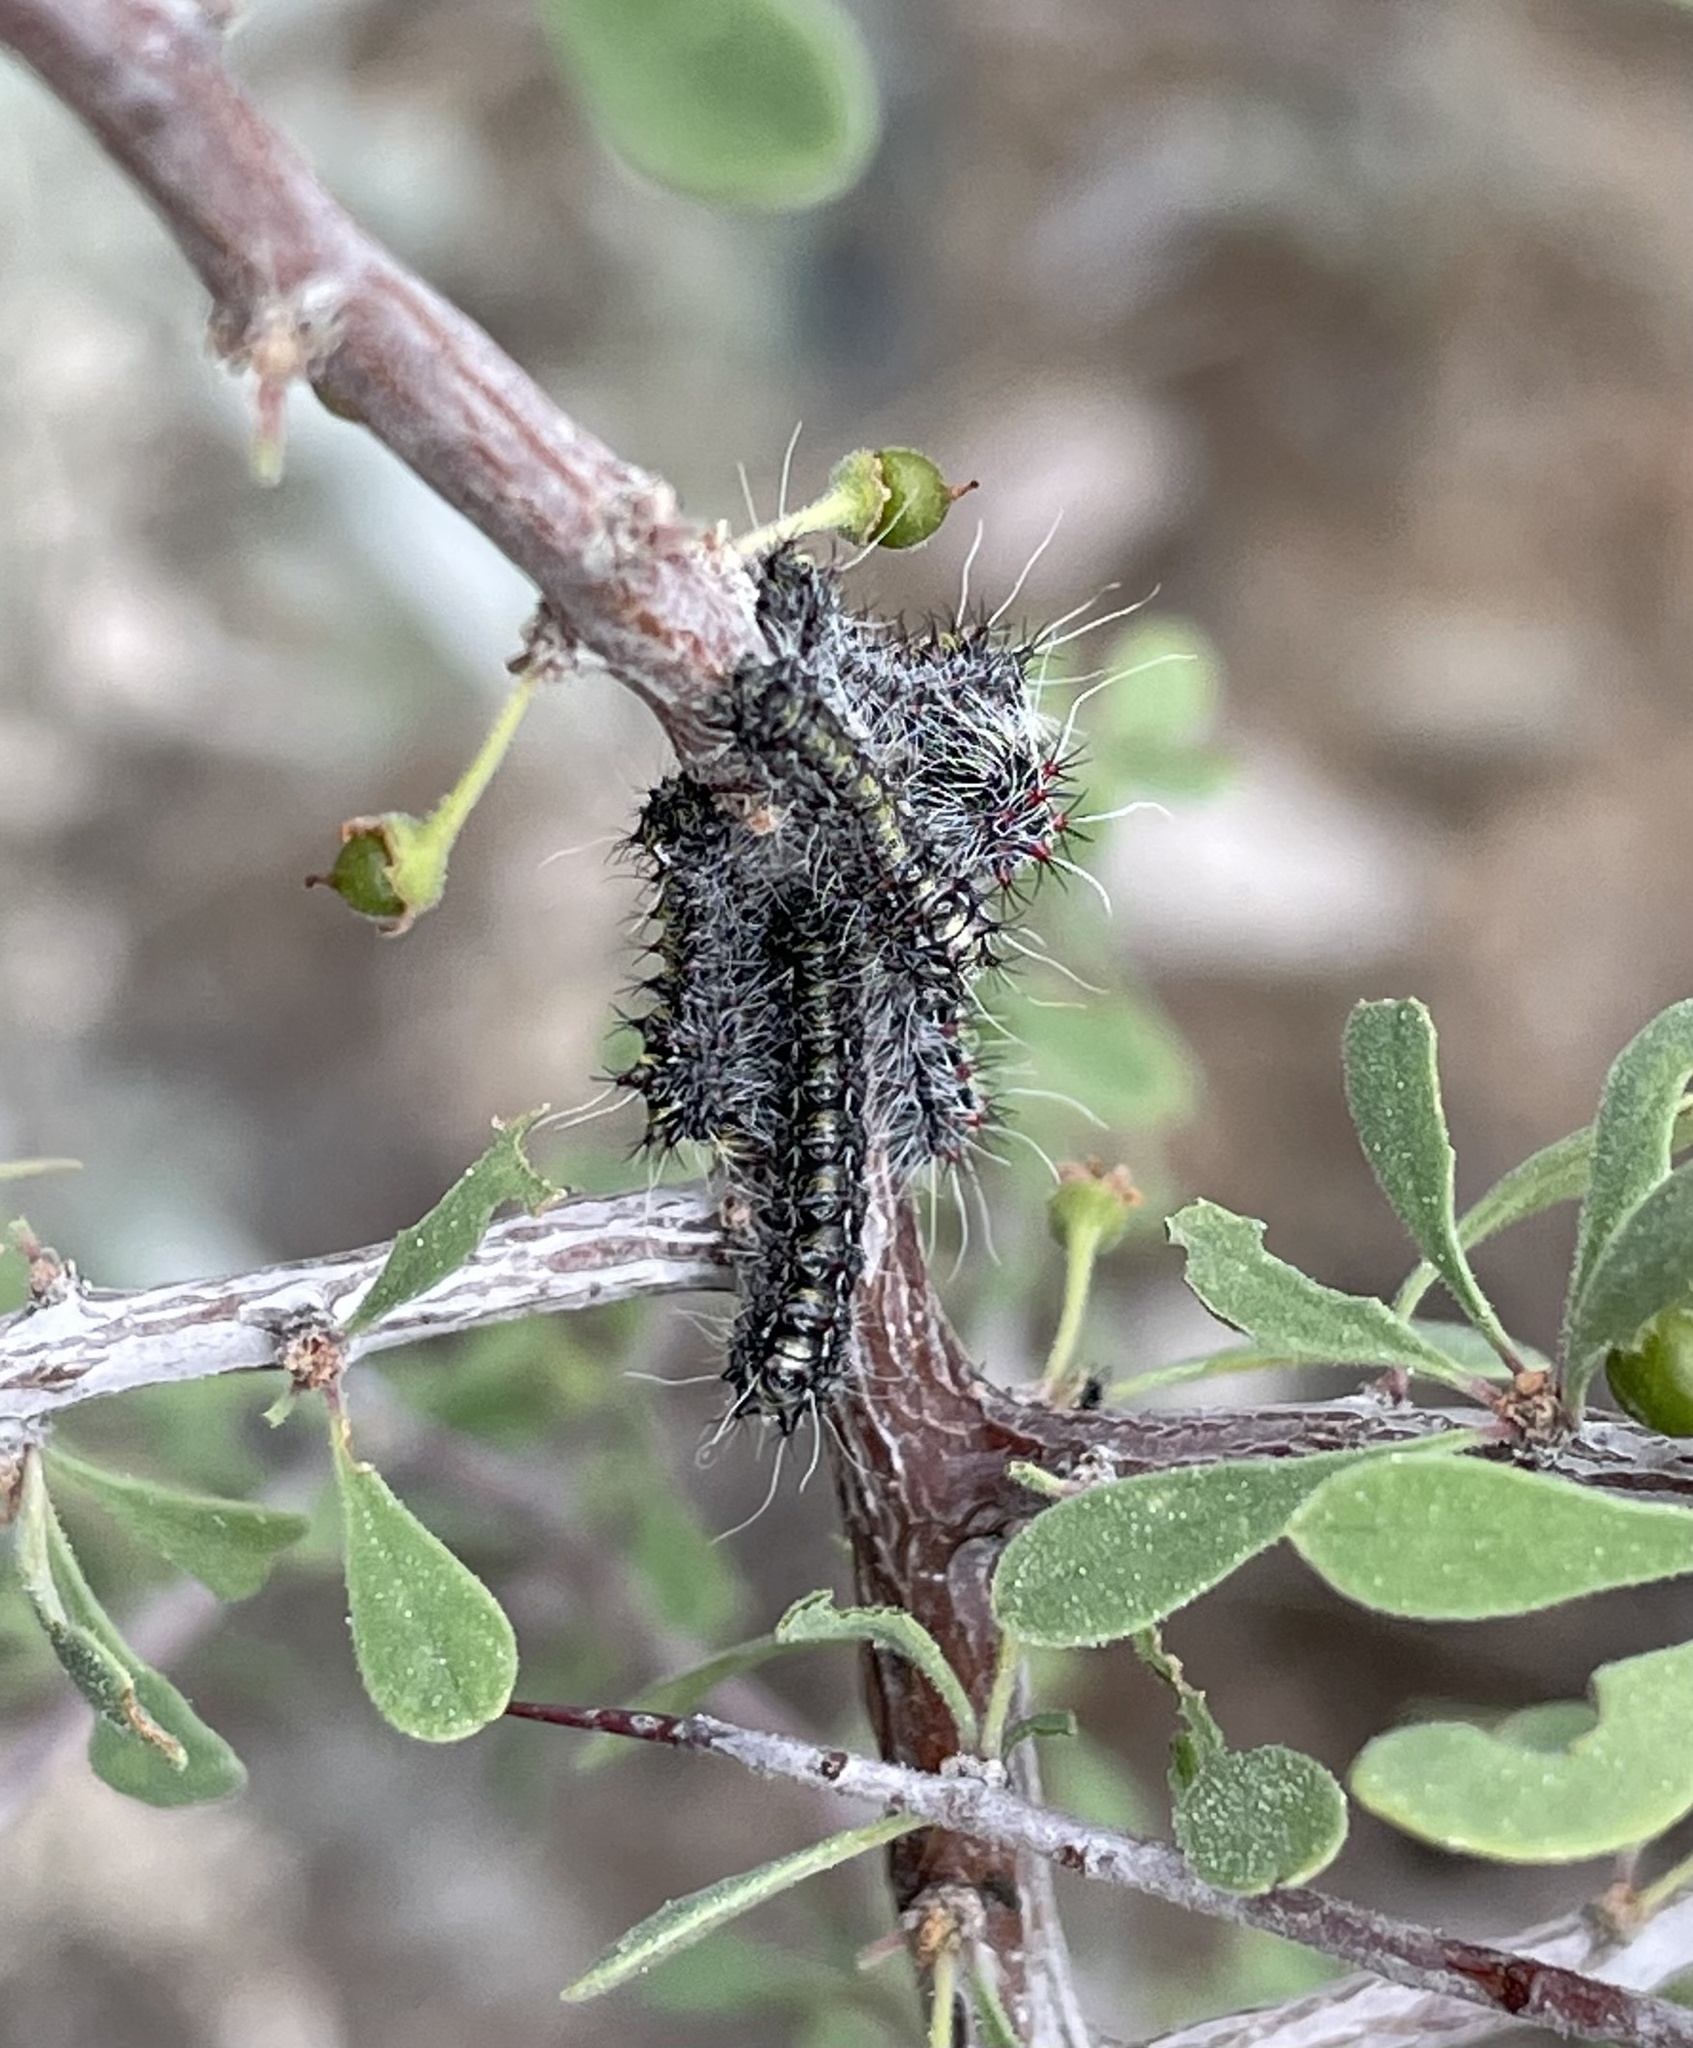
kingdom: Animalia
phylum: Arthropoda
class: Insecta
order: Lepidoptera
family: Saturniidae
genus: Saturnia
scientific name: Saturnia anona
